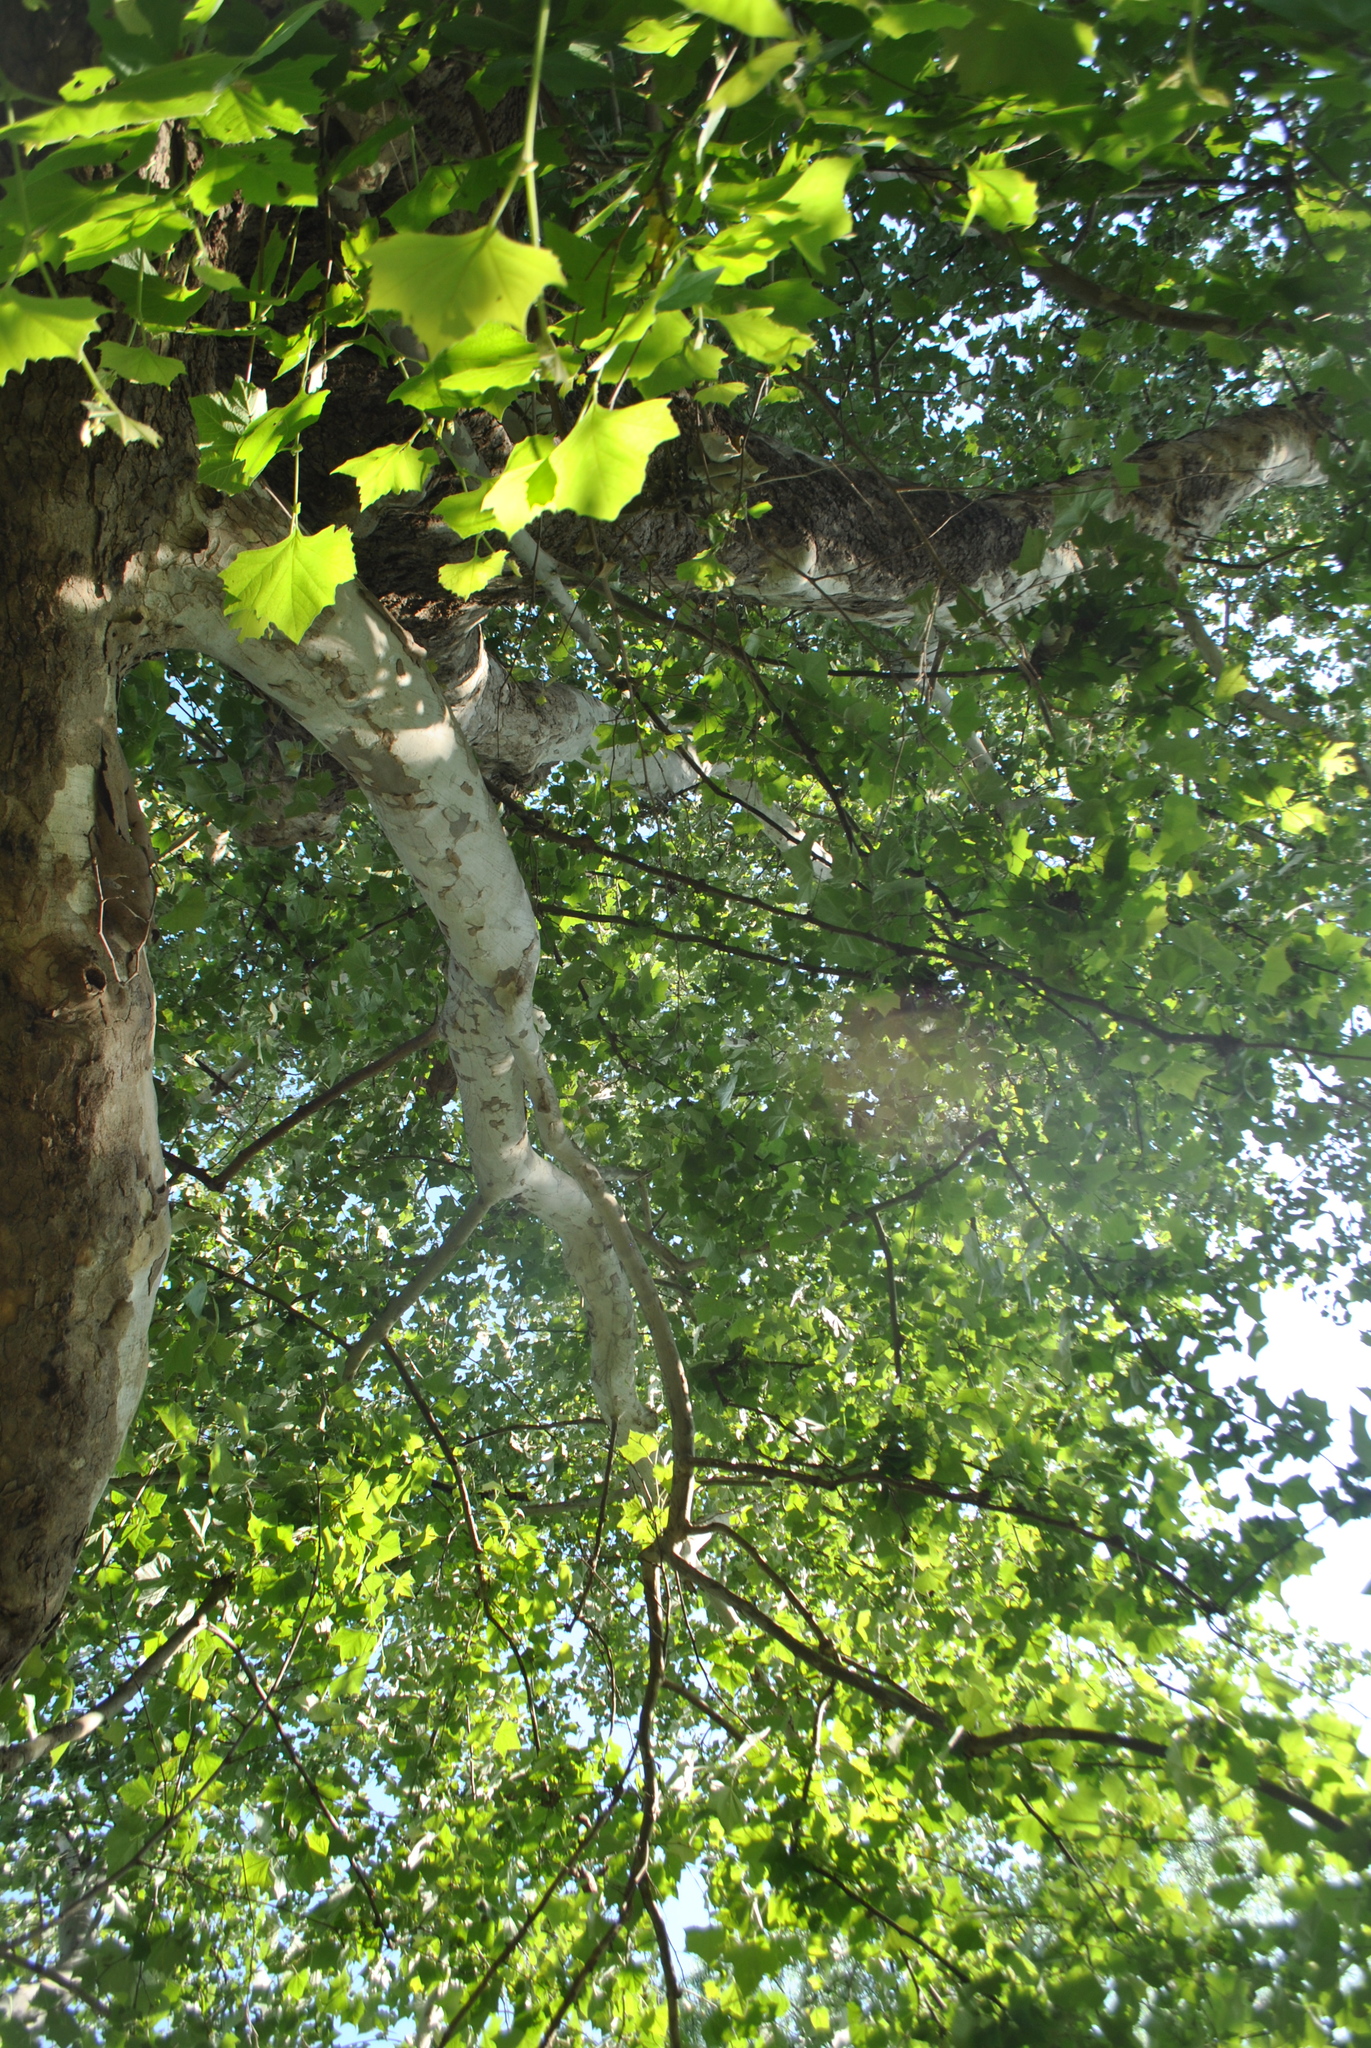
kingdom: Plantae
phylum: Tracheophyta
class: Magnoliopsida
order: Proteales
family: Platanaceae
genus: Platanus
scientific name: Platanus occidentalis
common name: American sycamore
